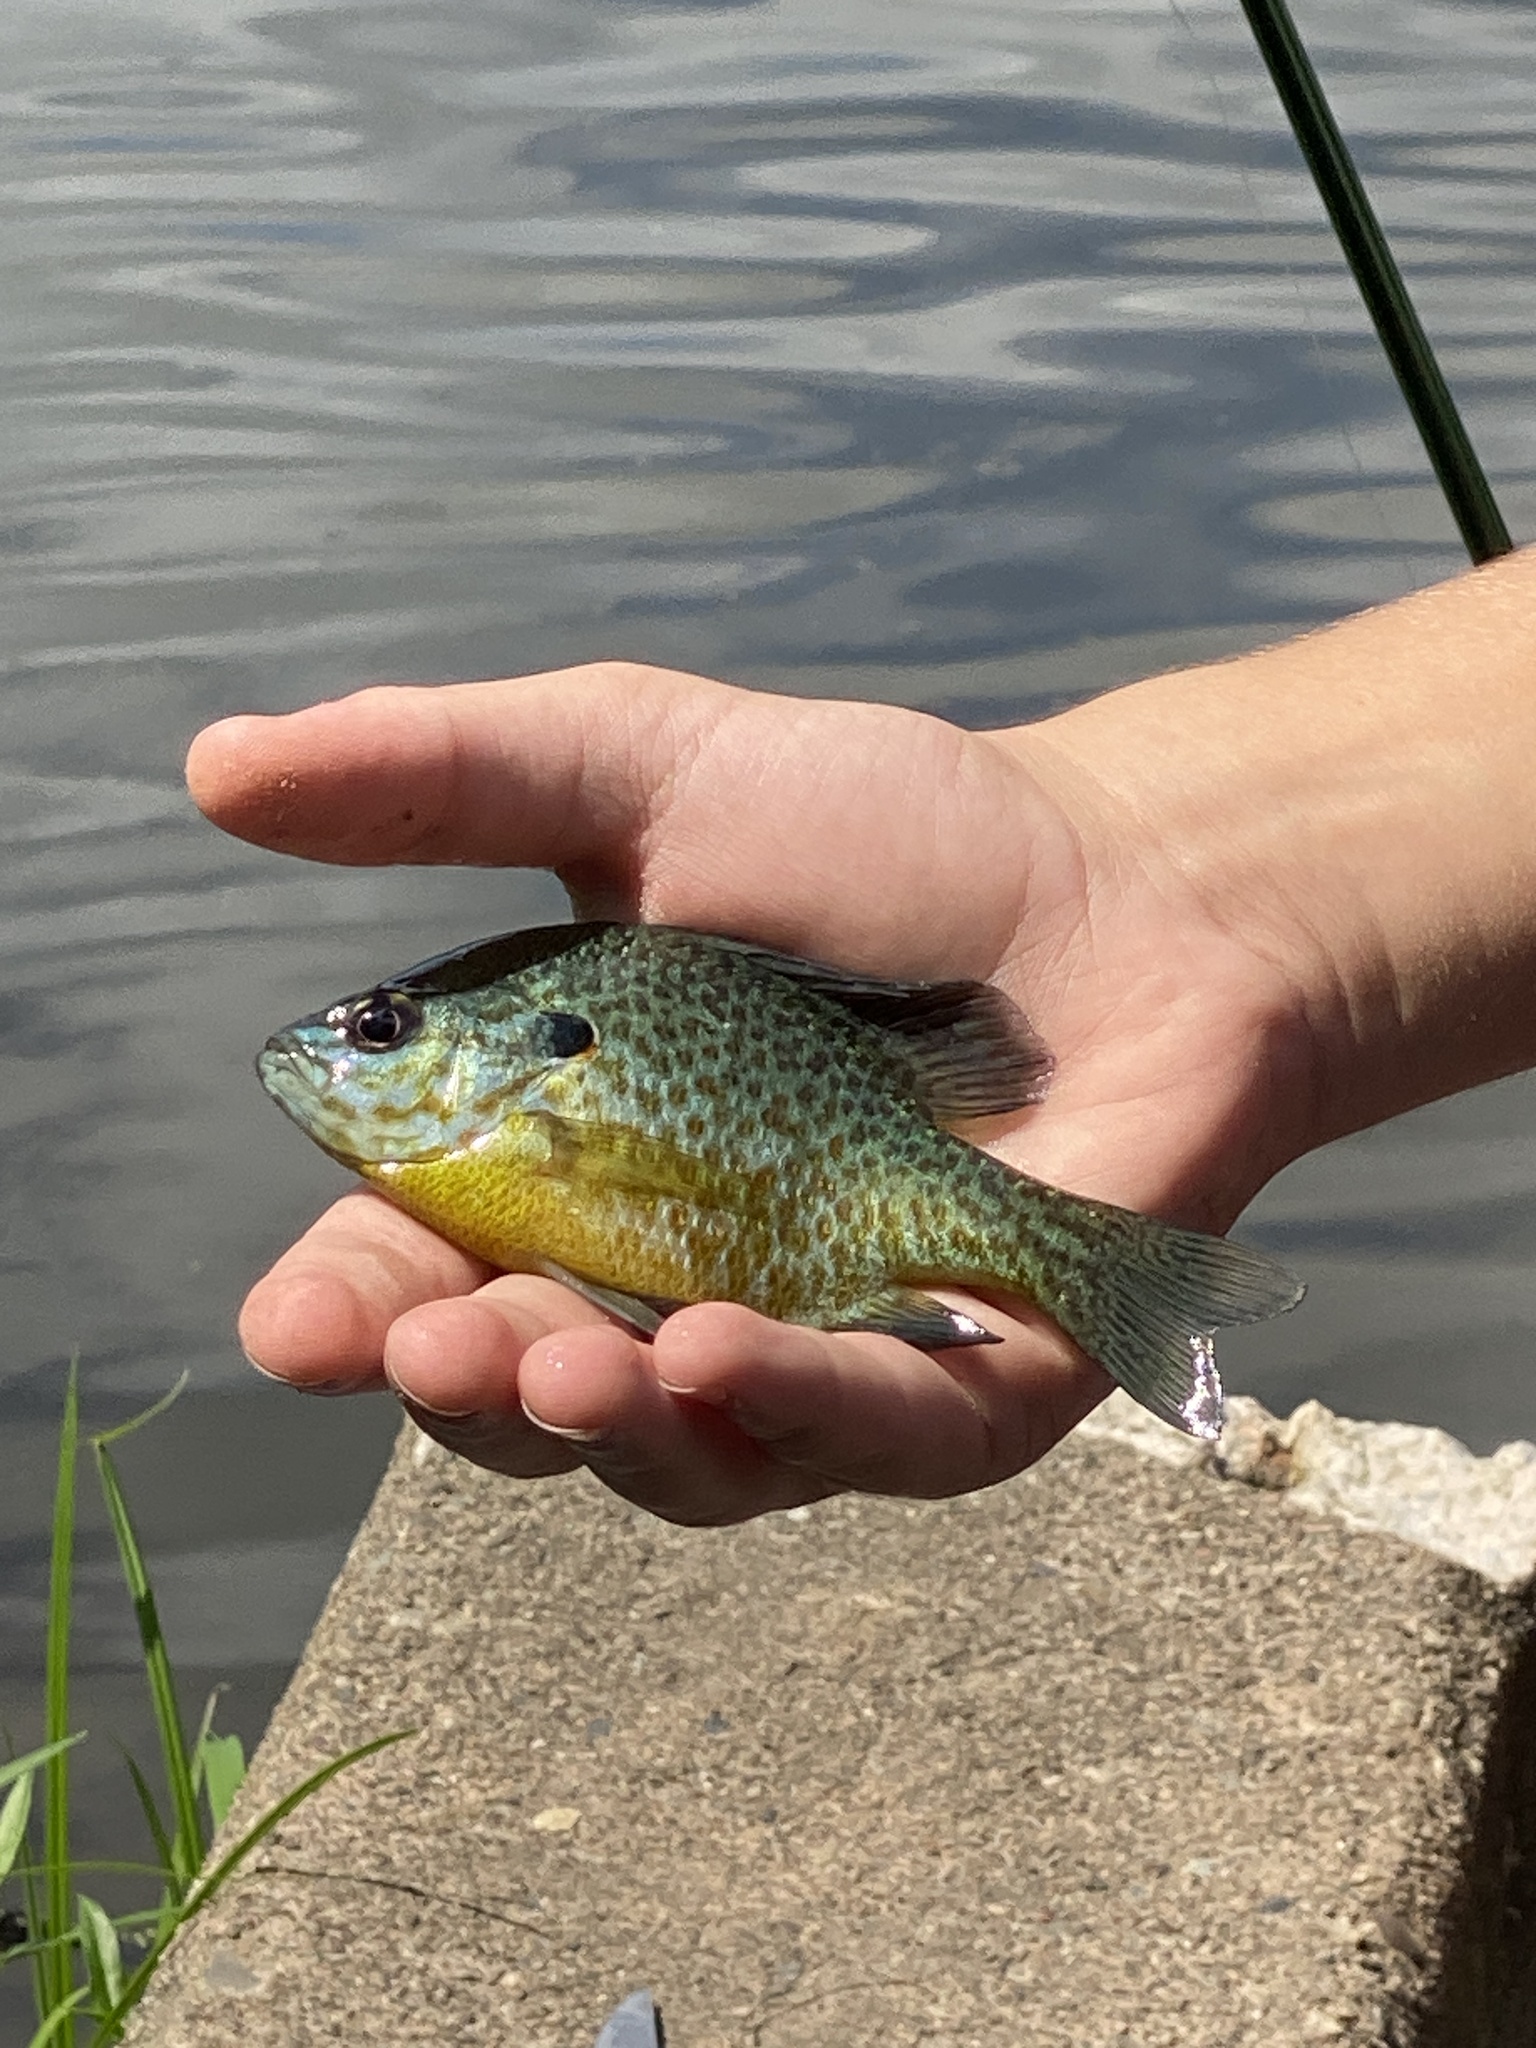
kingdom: Animalia
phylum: Chordata
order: Perciformes
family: Centrarchidae
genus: Lepomis
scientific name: Lepomis gibbosus
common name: Pumpkinseed
